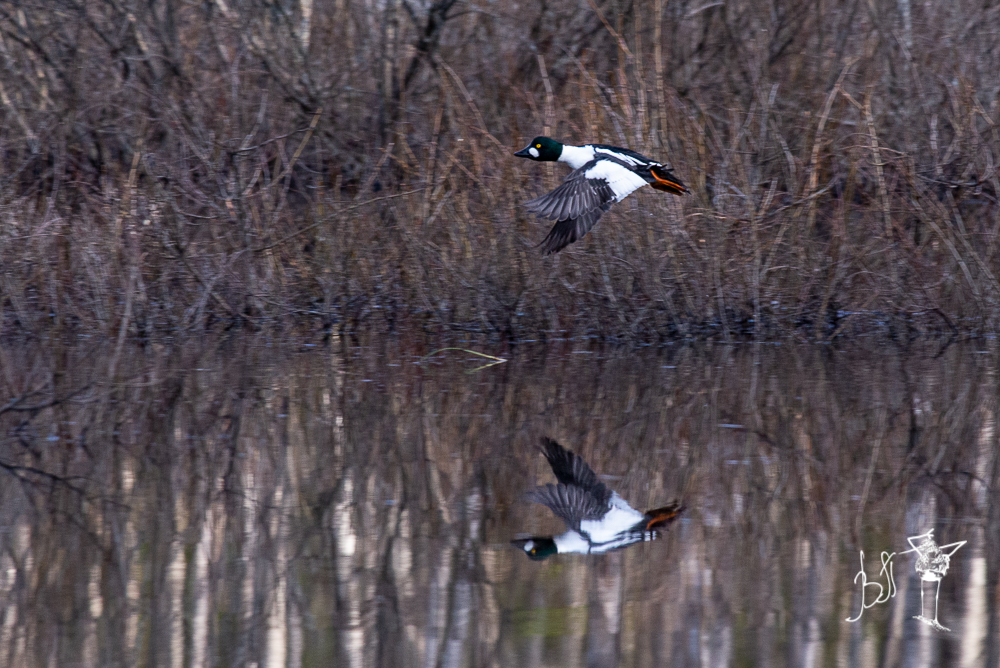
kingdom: Animalia
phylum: Chordata
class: Aves
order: Anseriformes
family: Anatidae
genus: Bucephala
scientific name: Bucephala clangula
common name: Common goldeneye
